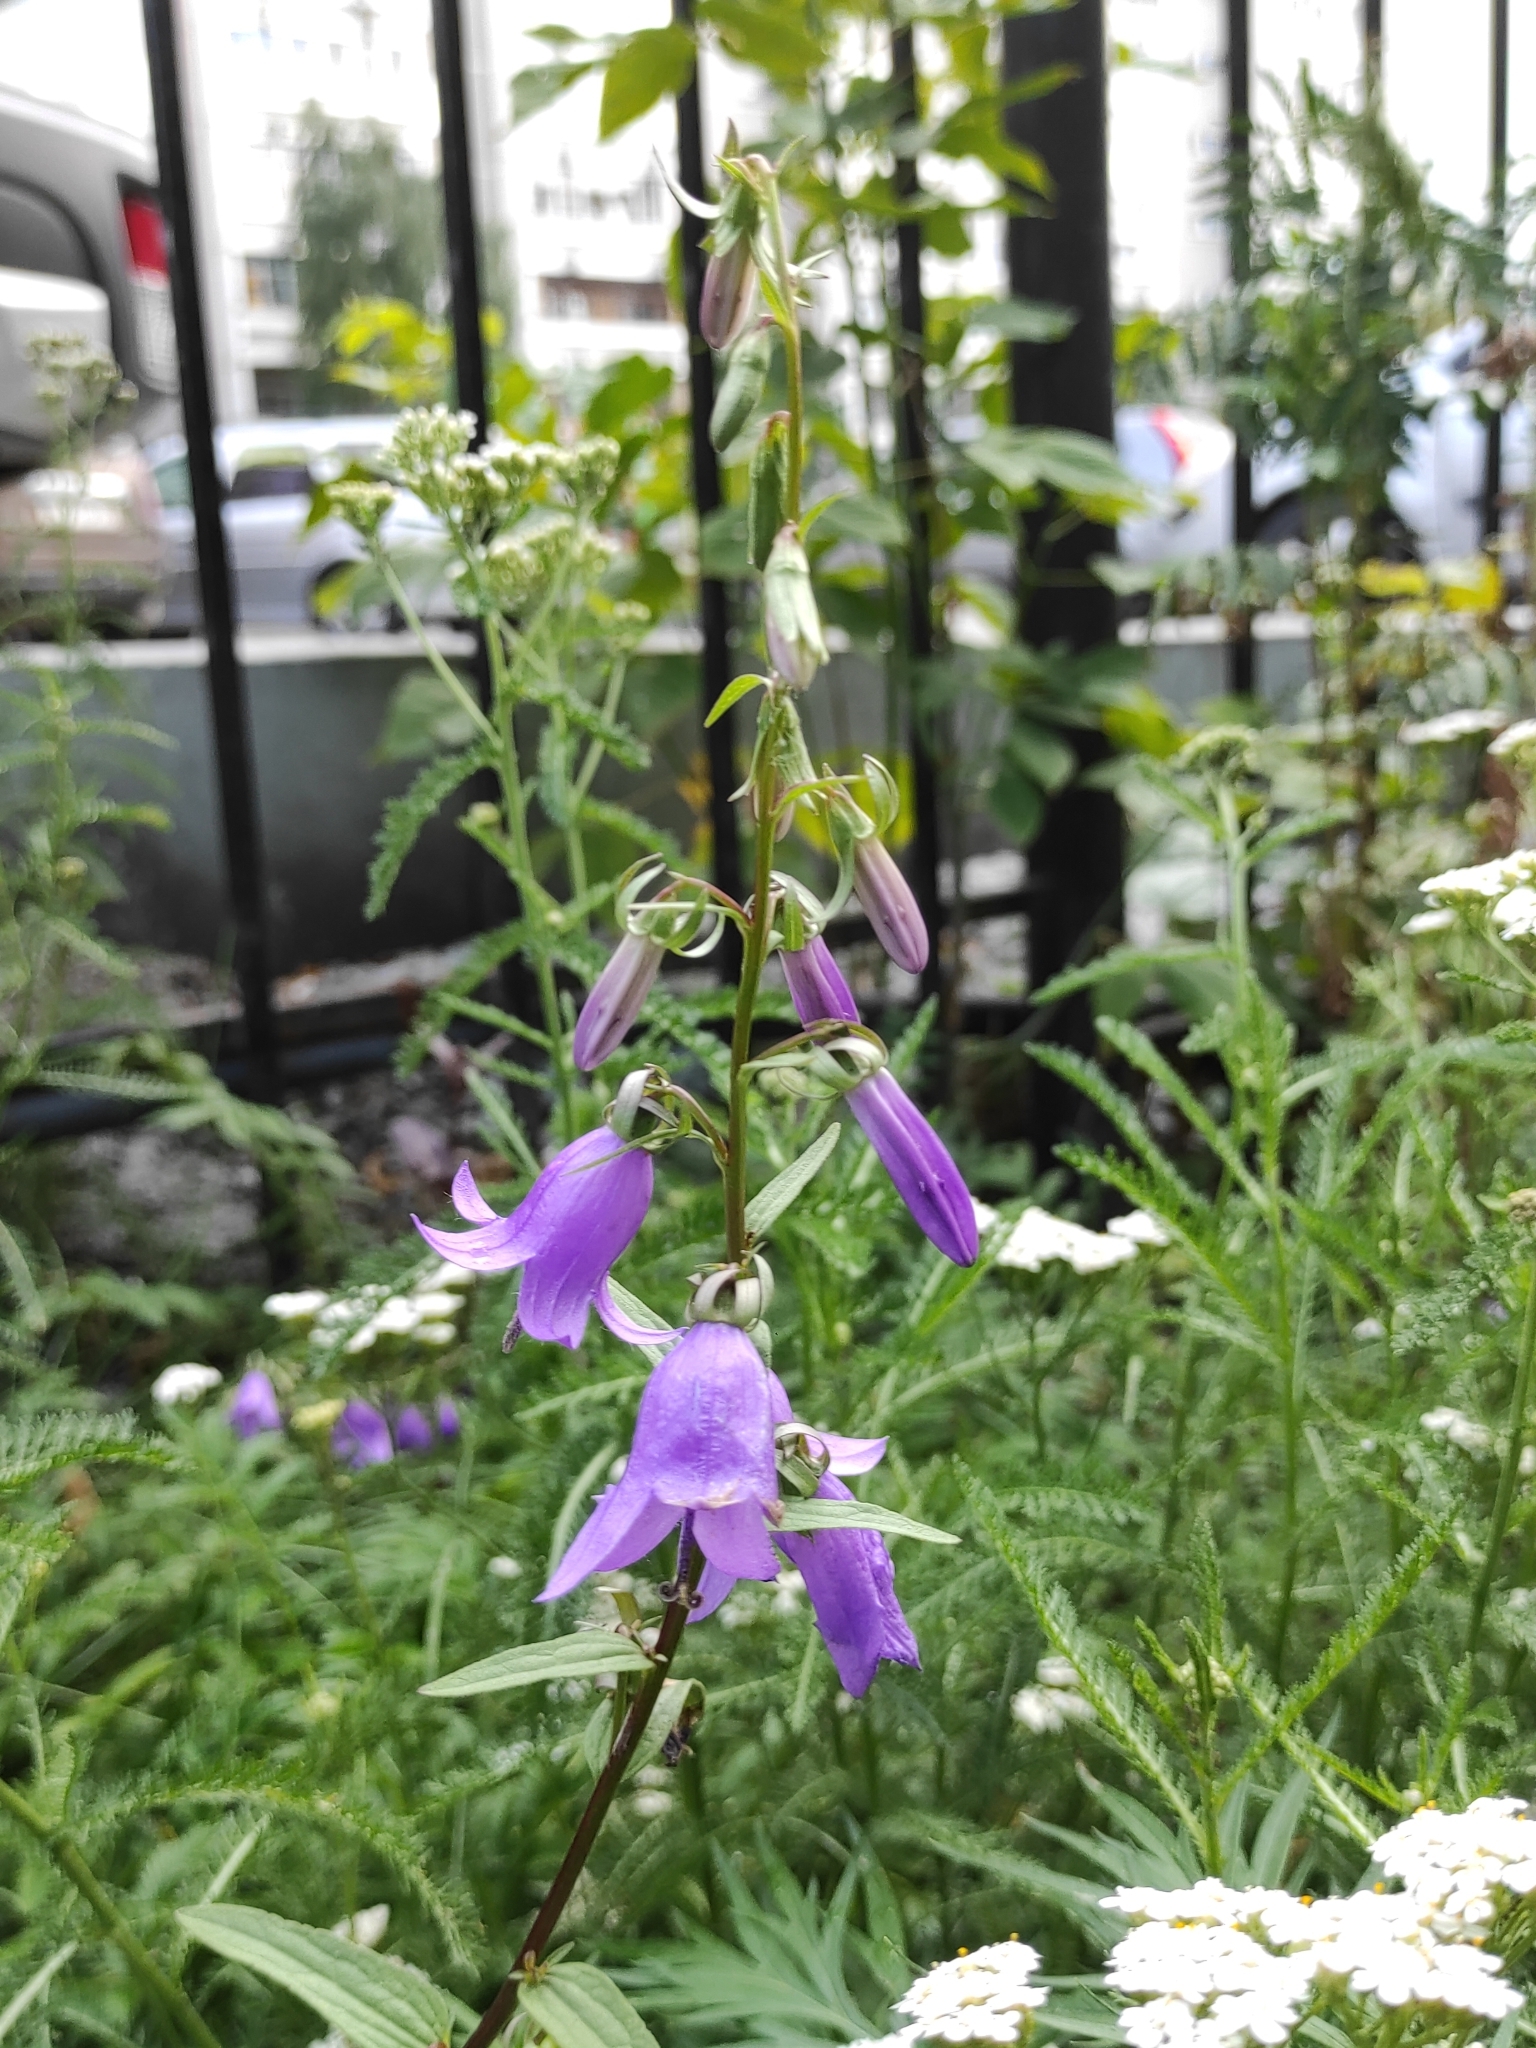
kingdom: Plantae
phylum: Tracheophyta
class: Magnoliopsida
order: Asterales
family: Campanulaceae
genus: Campanula
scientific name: Campanula rapunculoides
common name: Creeping bellflower
